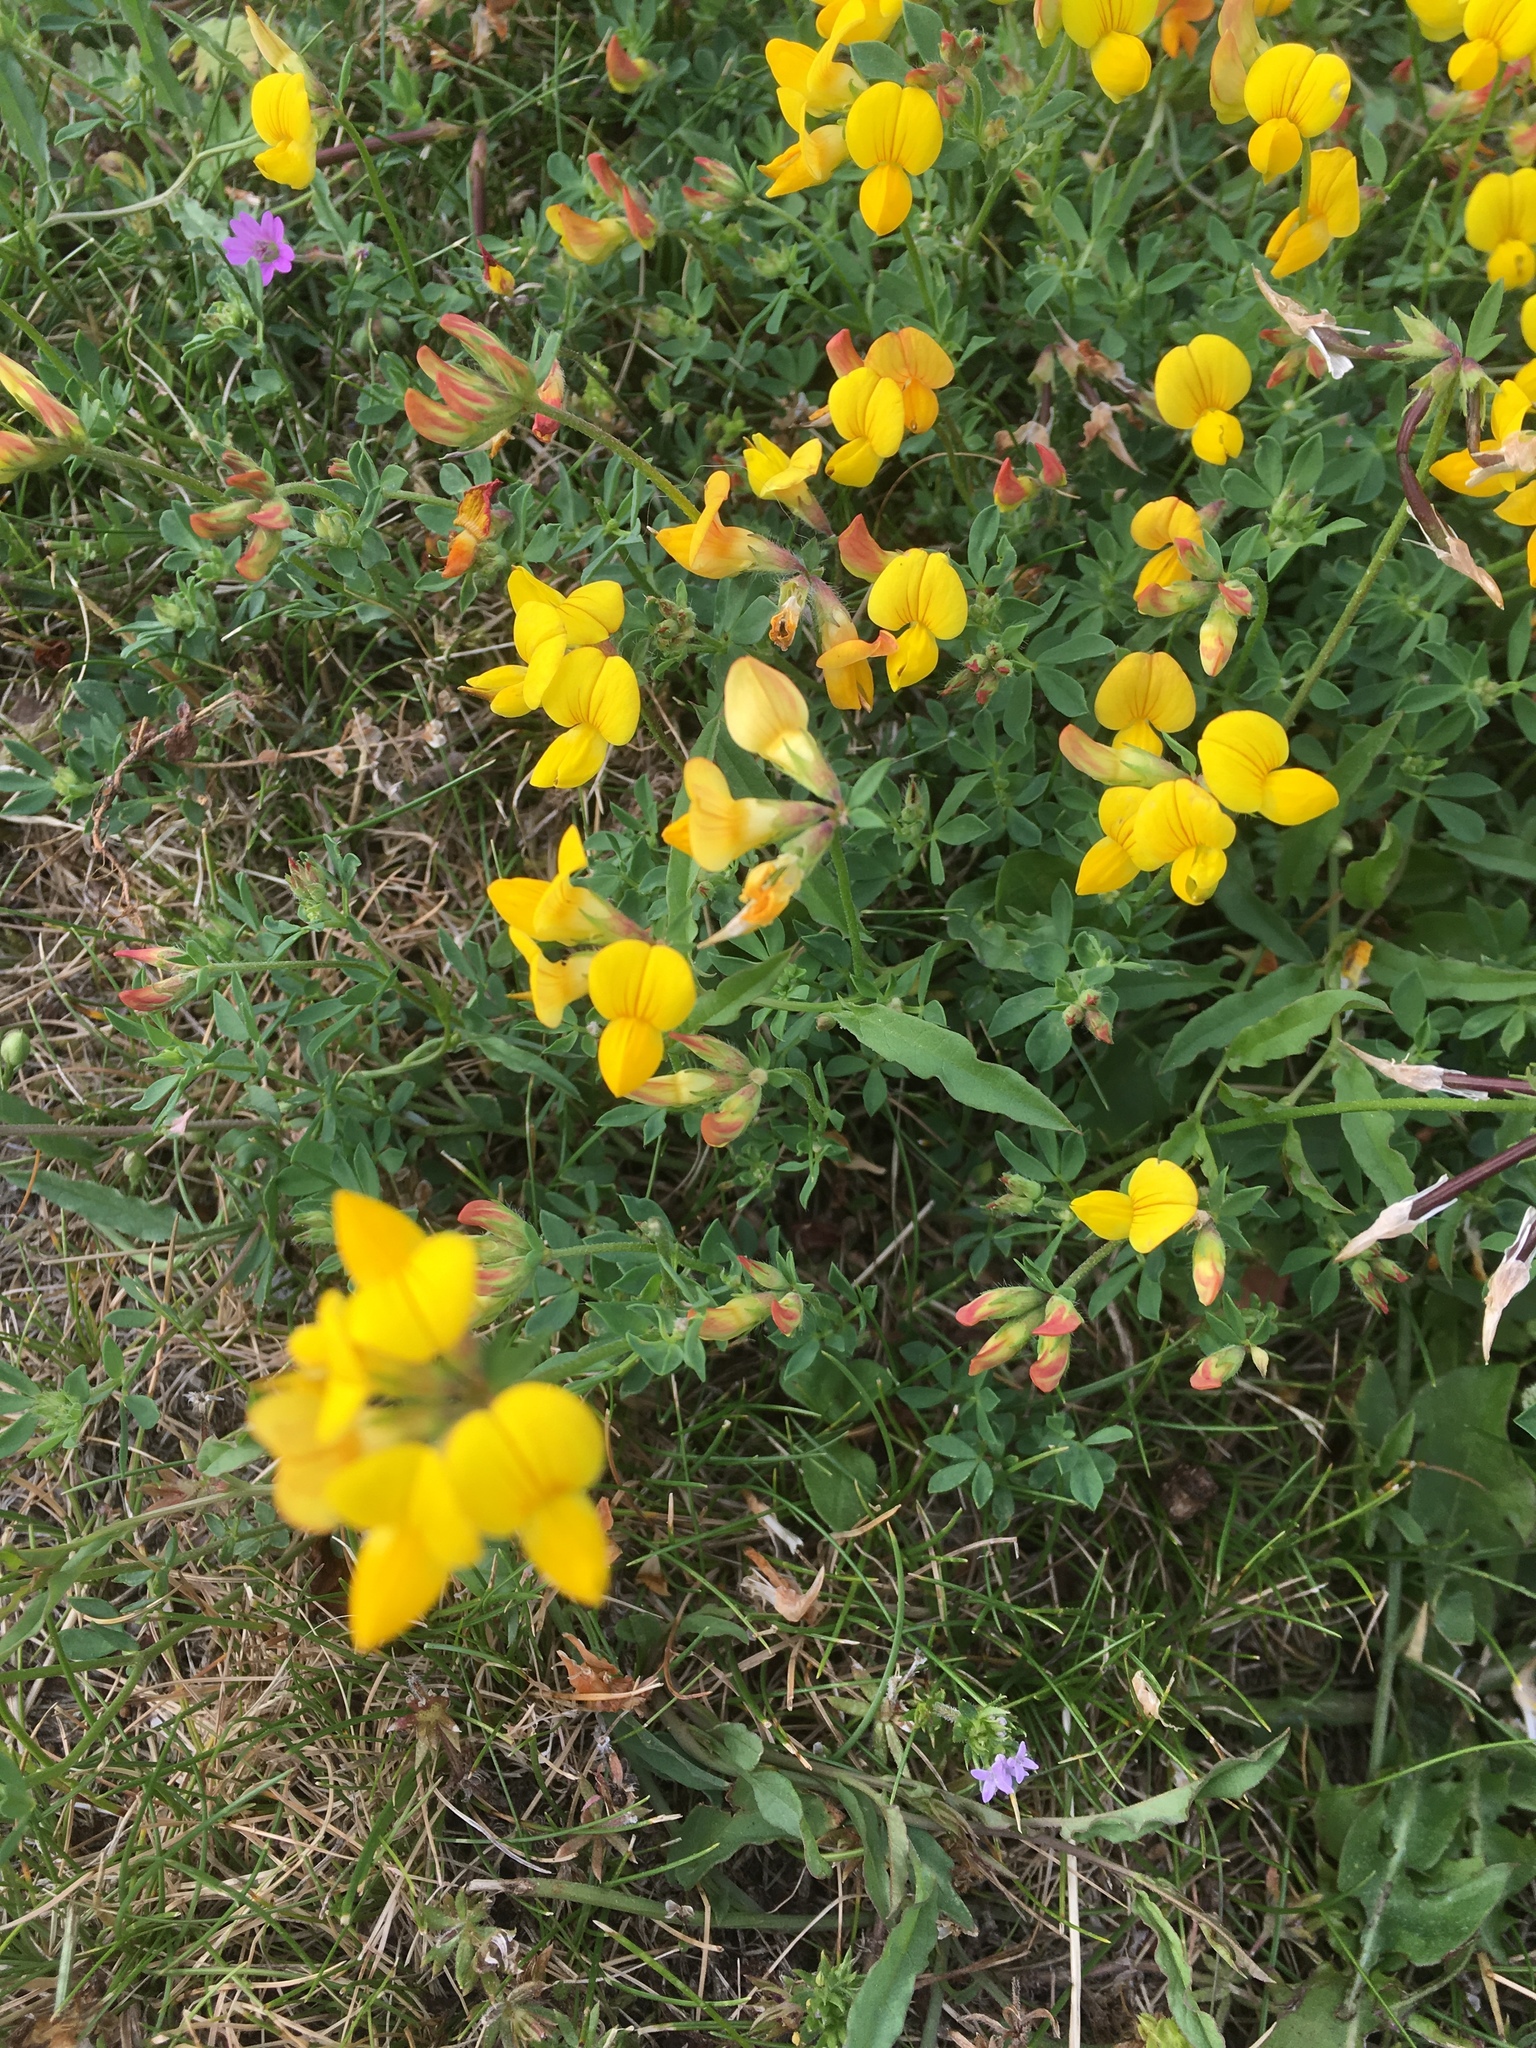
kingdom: Plantae
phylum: Tracheophyta
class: Magnoliopsida
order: Fabales
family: Fabaceae
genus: Lotus
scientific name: Lotus corniculatus
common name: Common bird's-foot-trefoil
